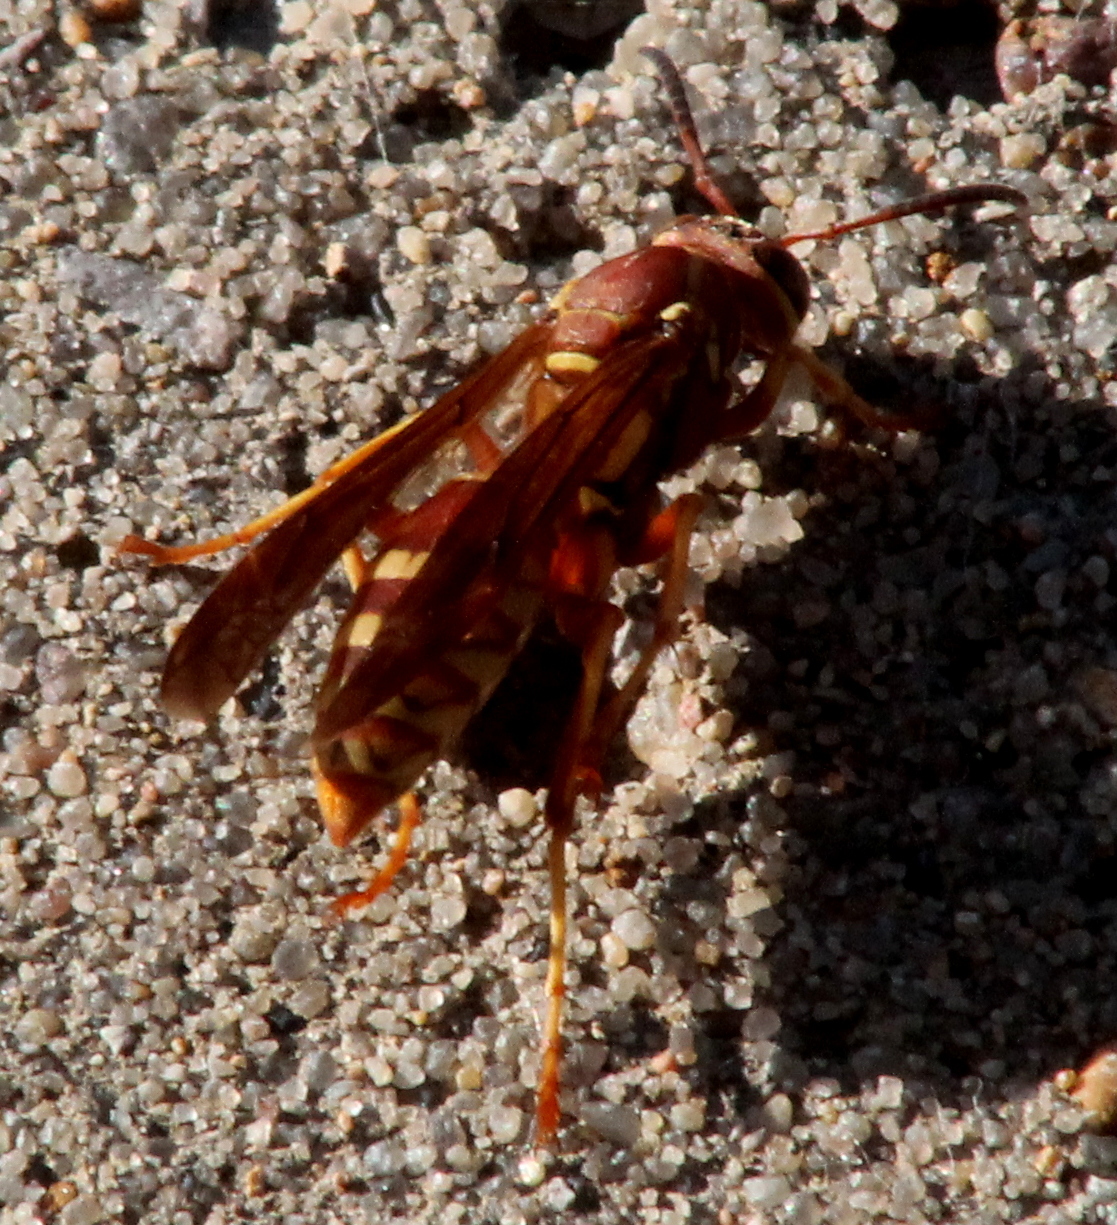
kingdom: Animalia
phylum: Arthropoda
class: Insecta
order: Hymenoptera
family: Eumenidae
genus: Polistes
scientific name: Polistes apachus
